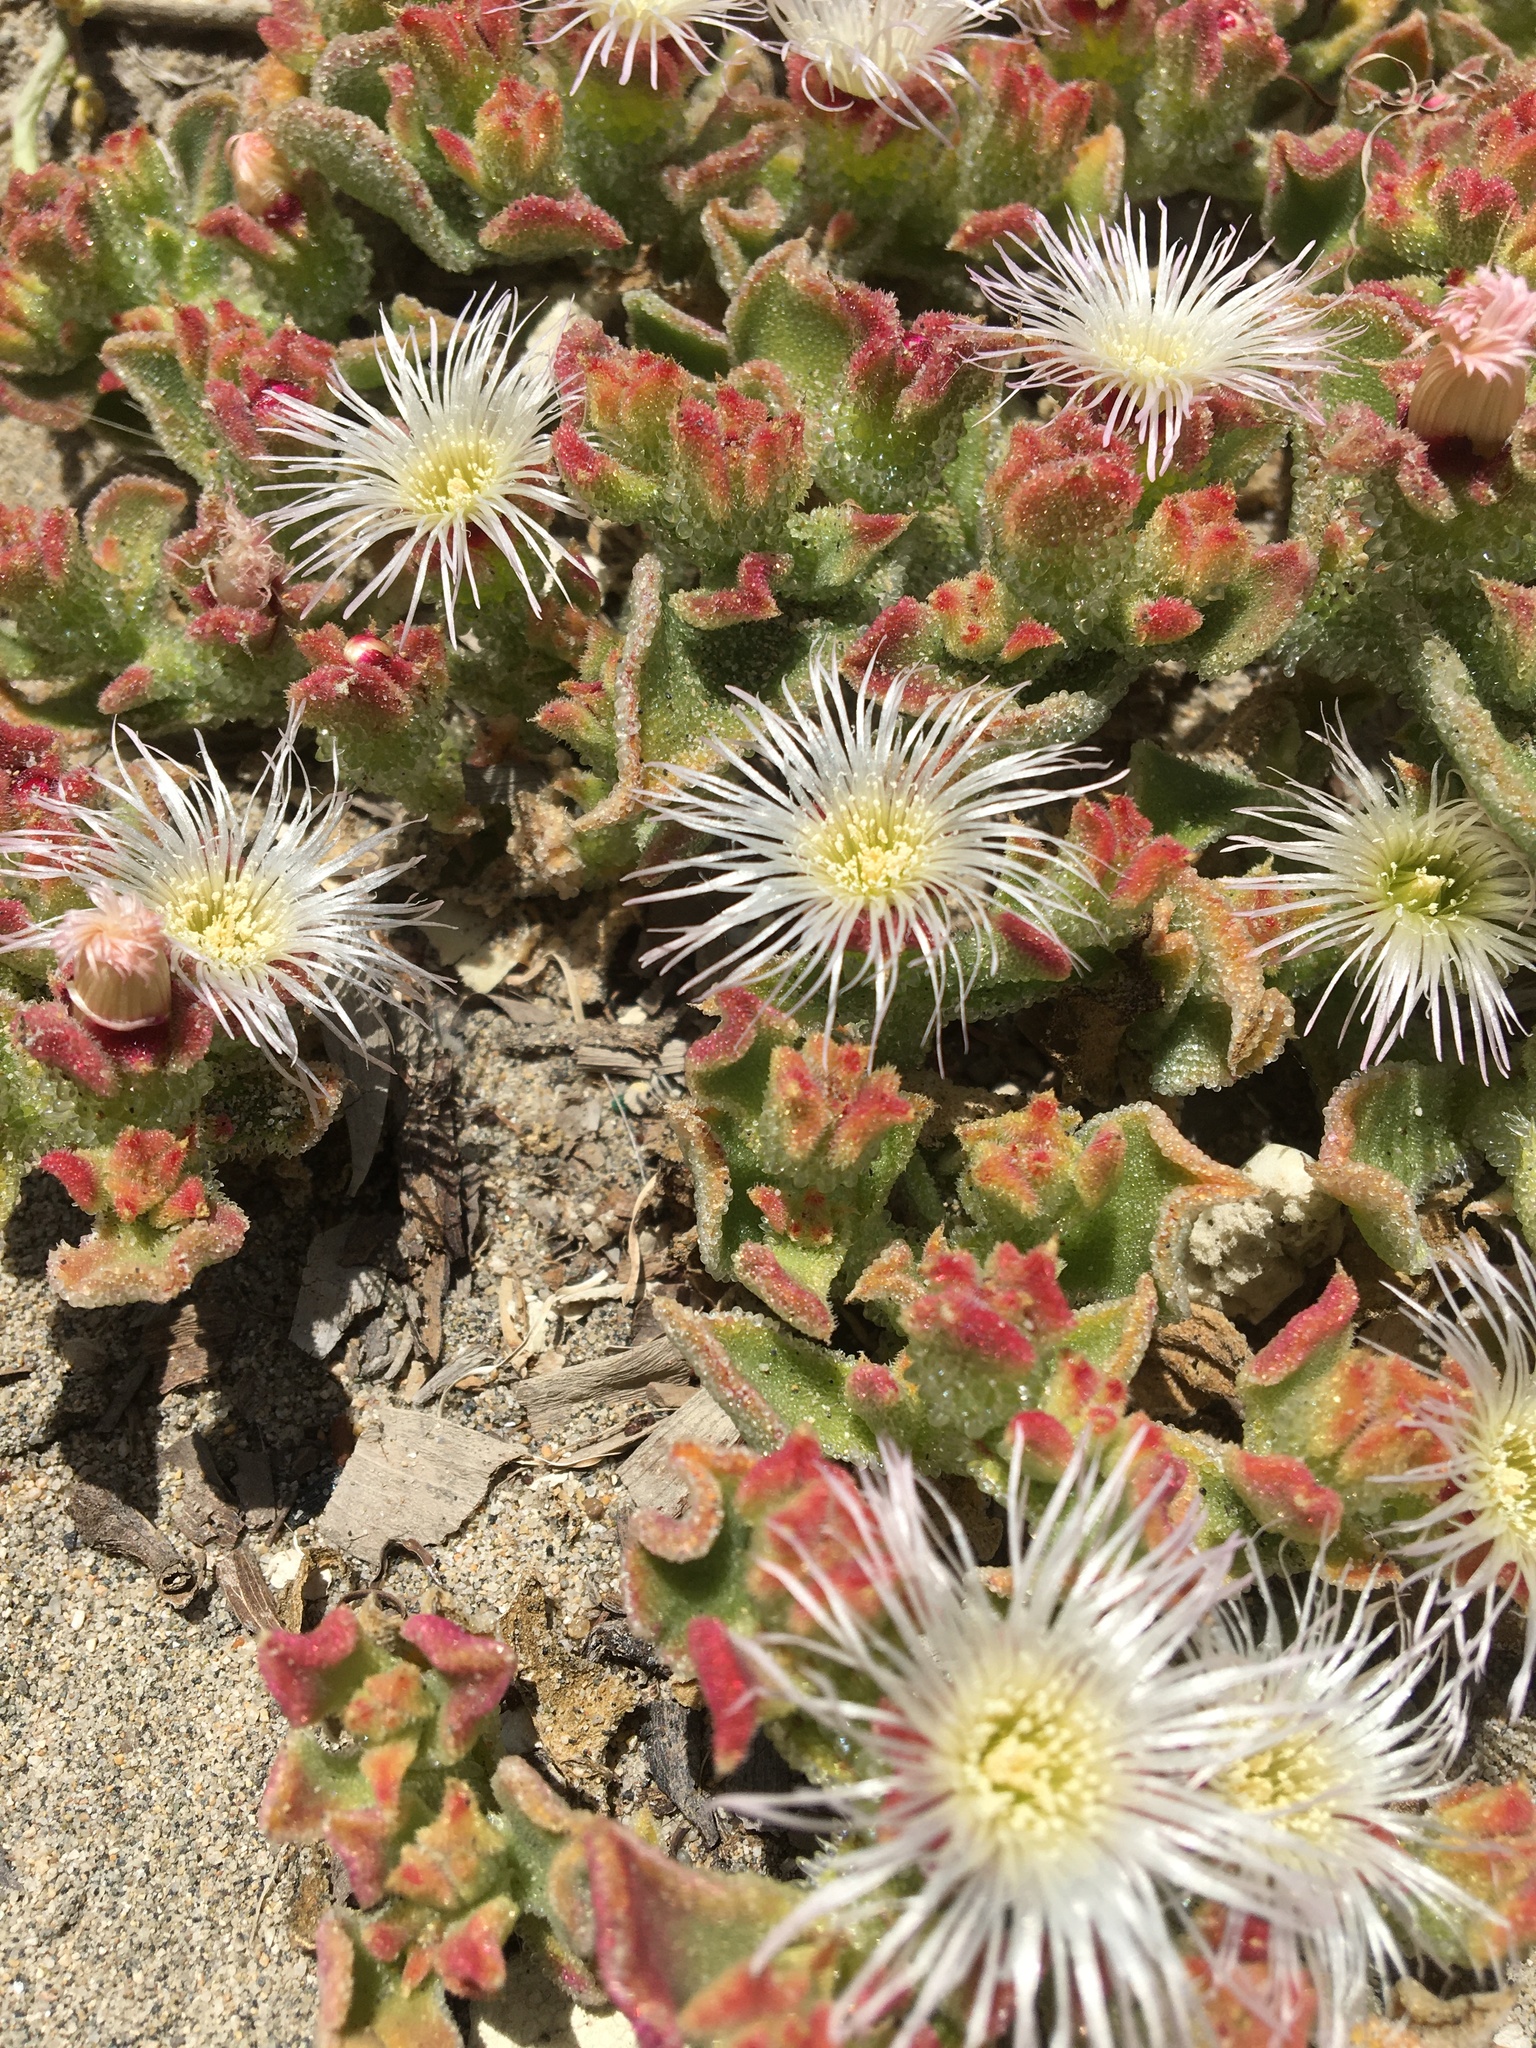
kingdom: Plantae
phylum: Tracheophyta
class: Magnoliopsida
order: Caryophyllales
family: Aizoaceae
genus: Mesembryanthemum
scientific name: Mesembryanthemum crystallinum
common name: Common iceplant
